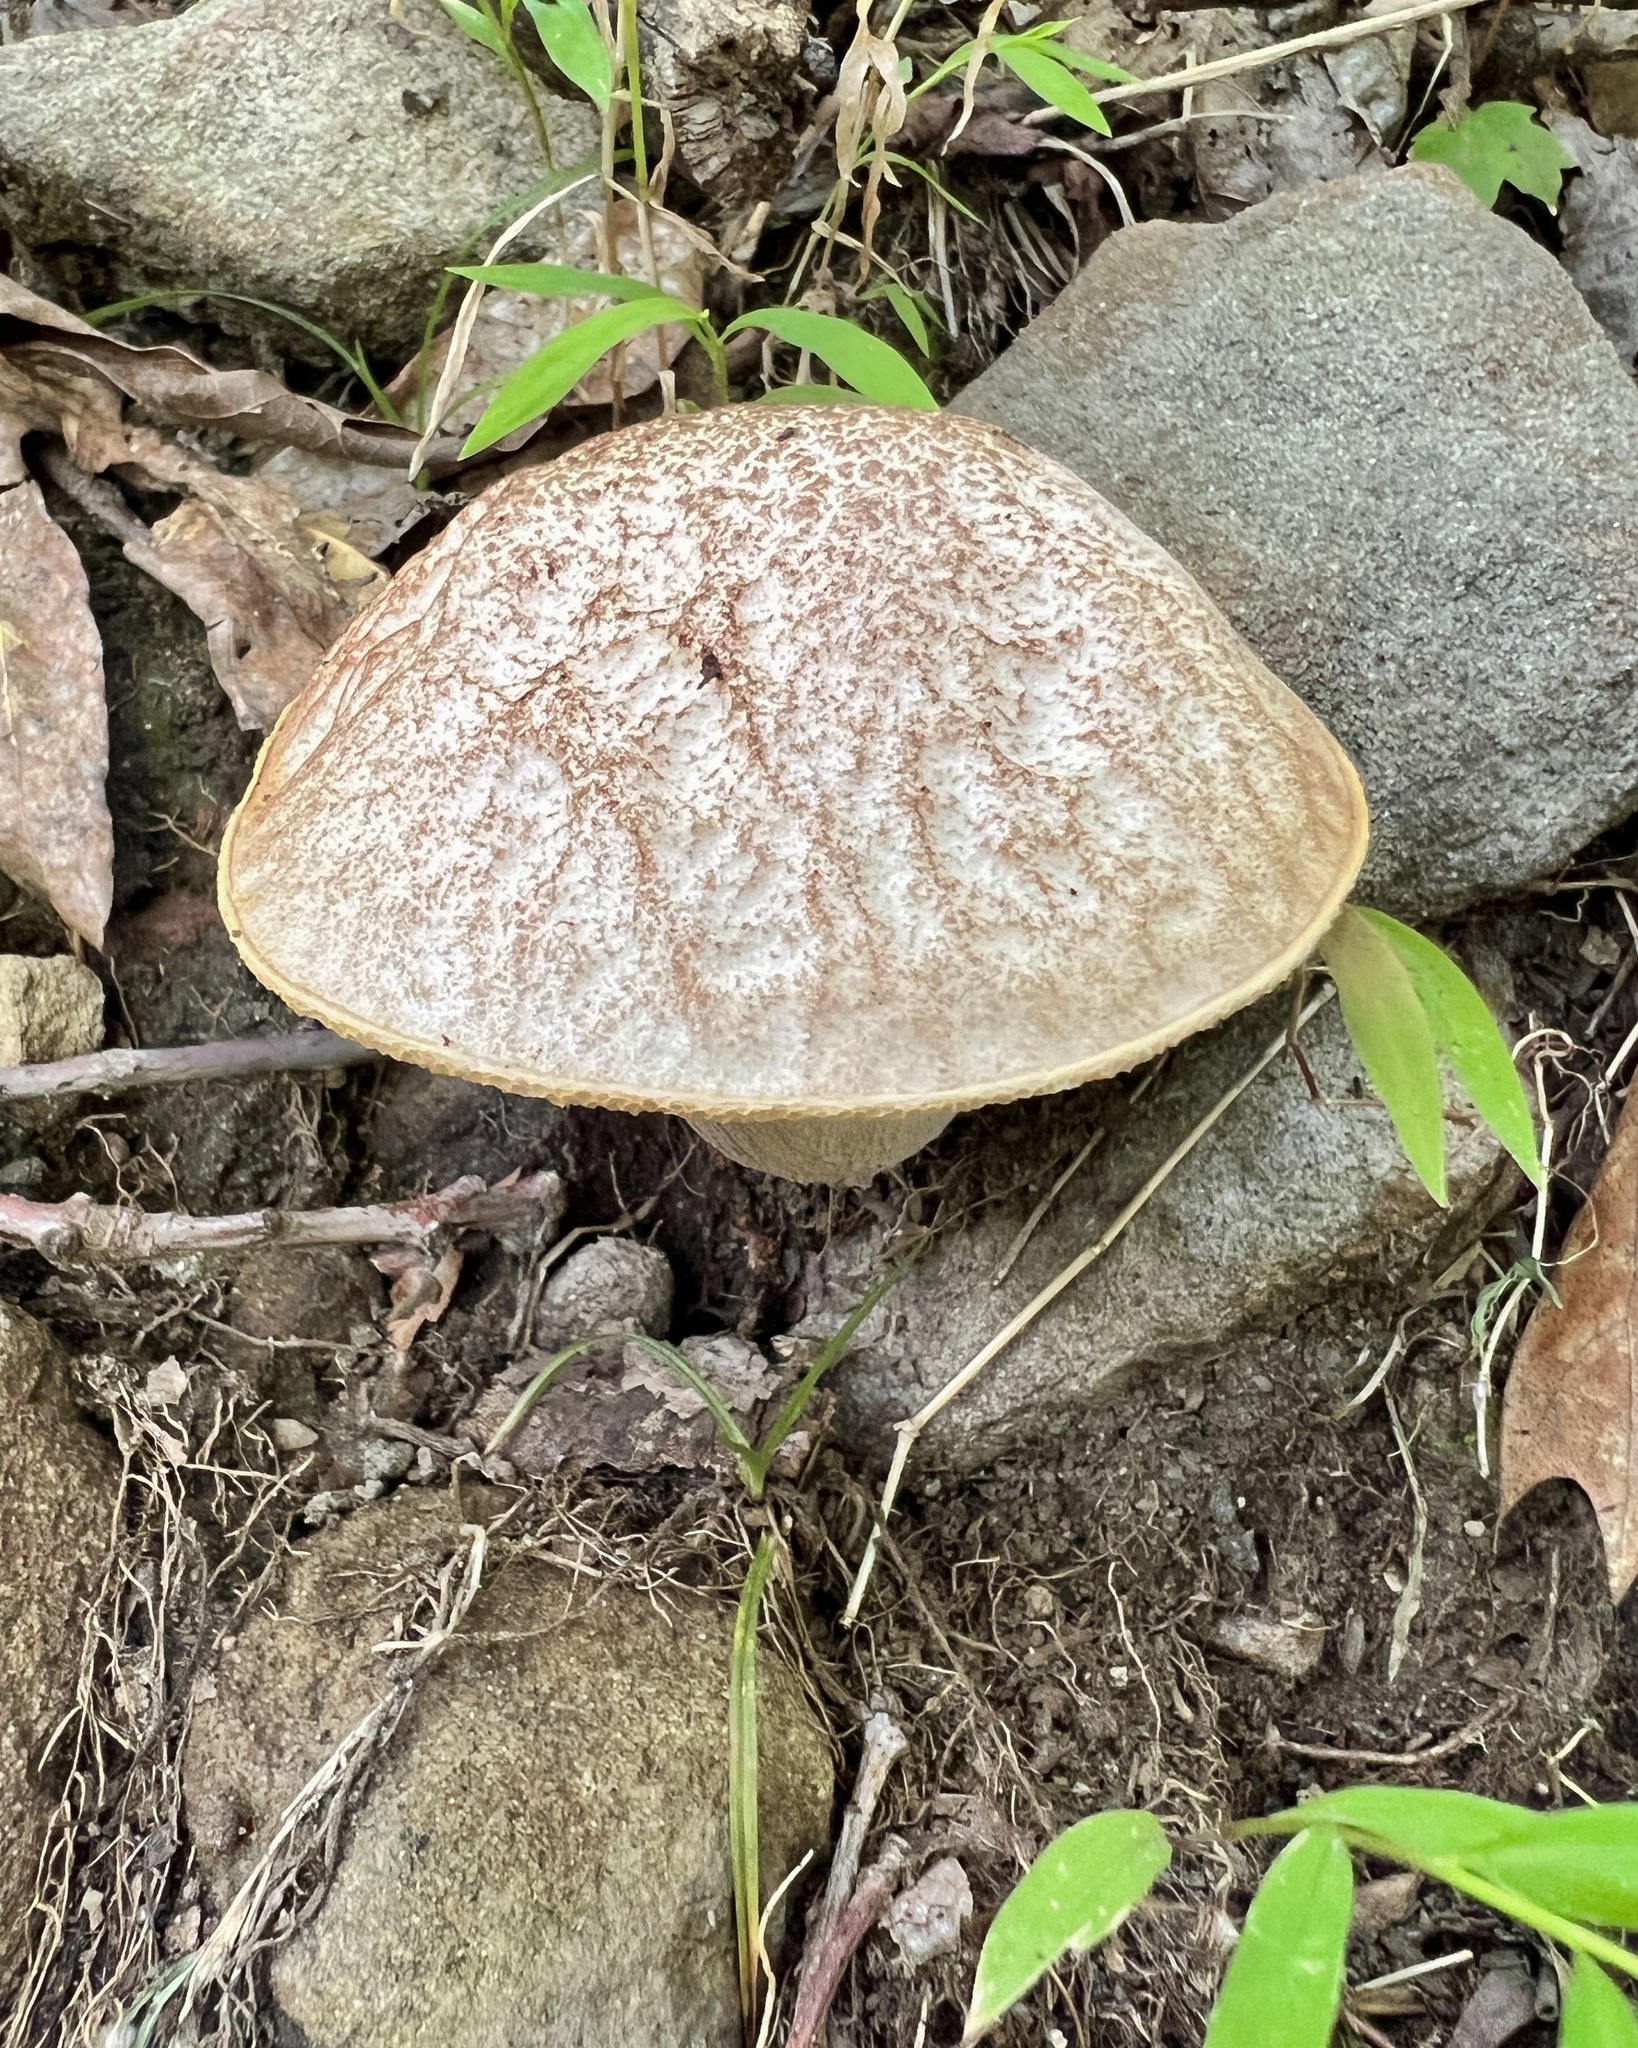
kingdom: Fungi
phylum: Basidiomycota
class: Agaricomycetes
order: Boletales
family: Boletaceae
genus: Leccinellum
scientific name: Leccinellum albellum
